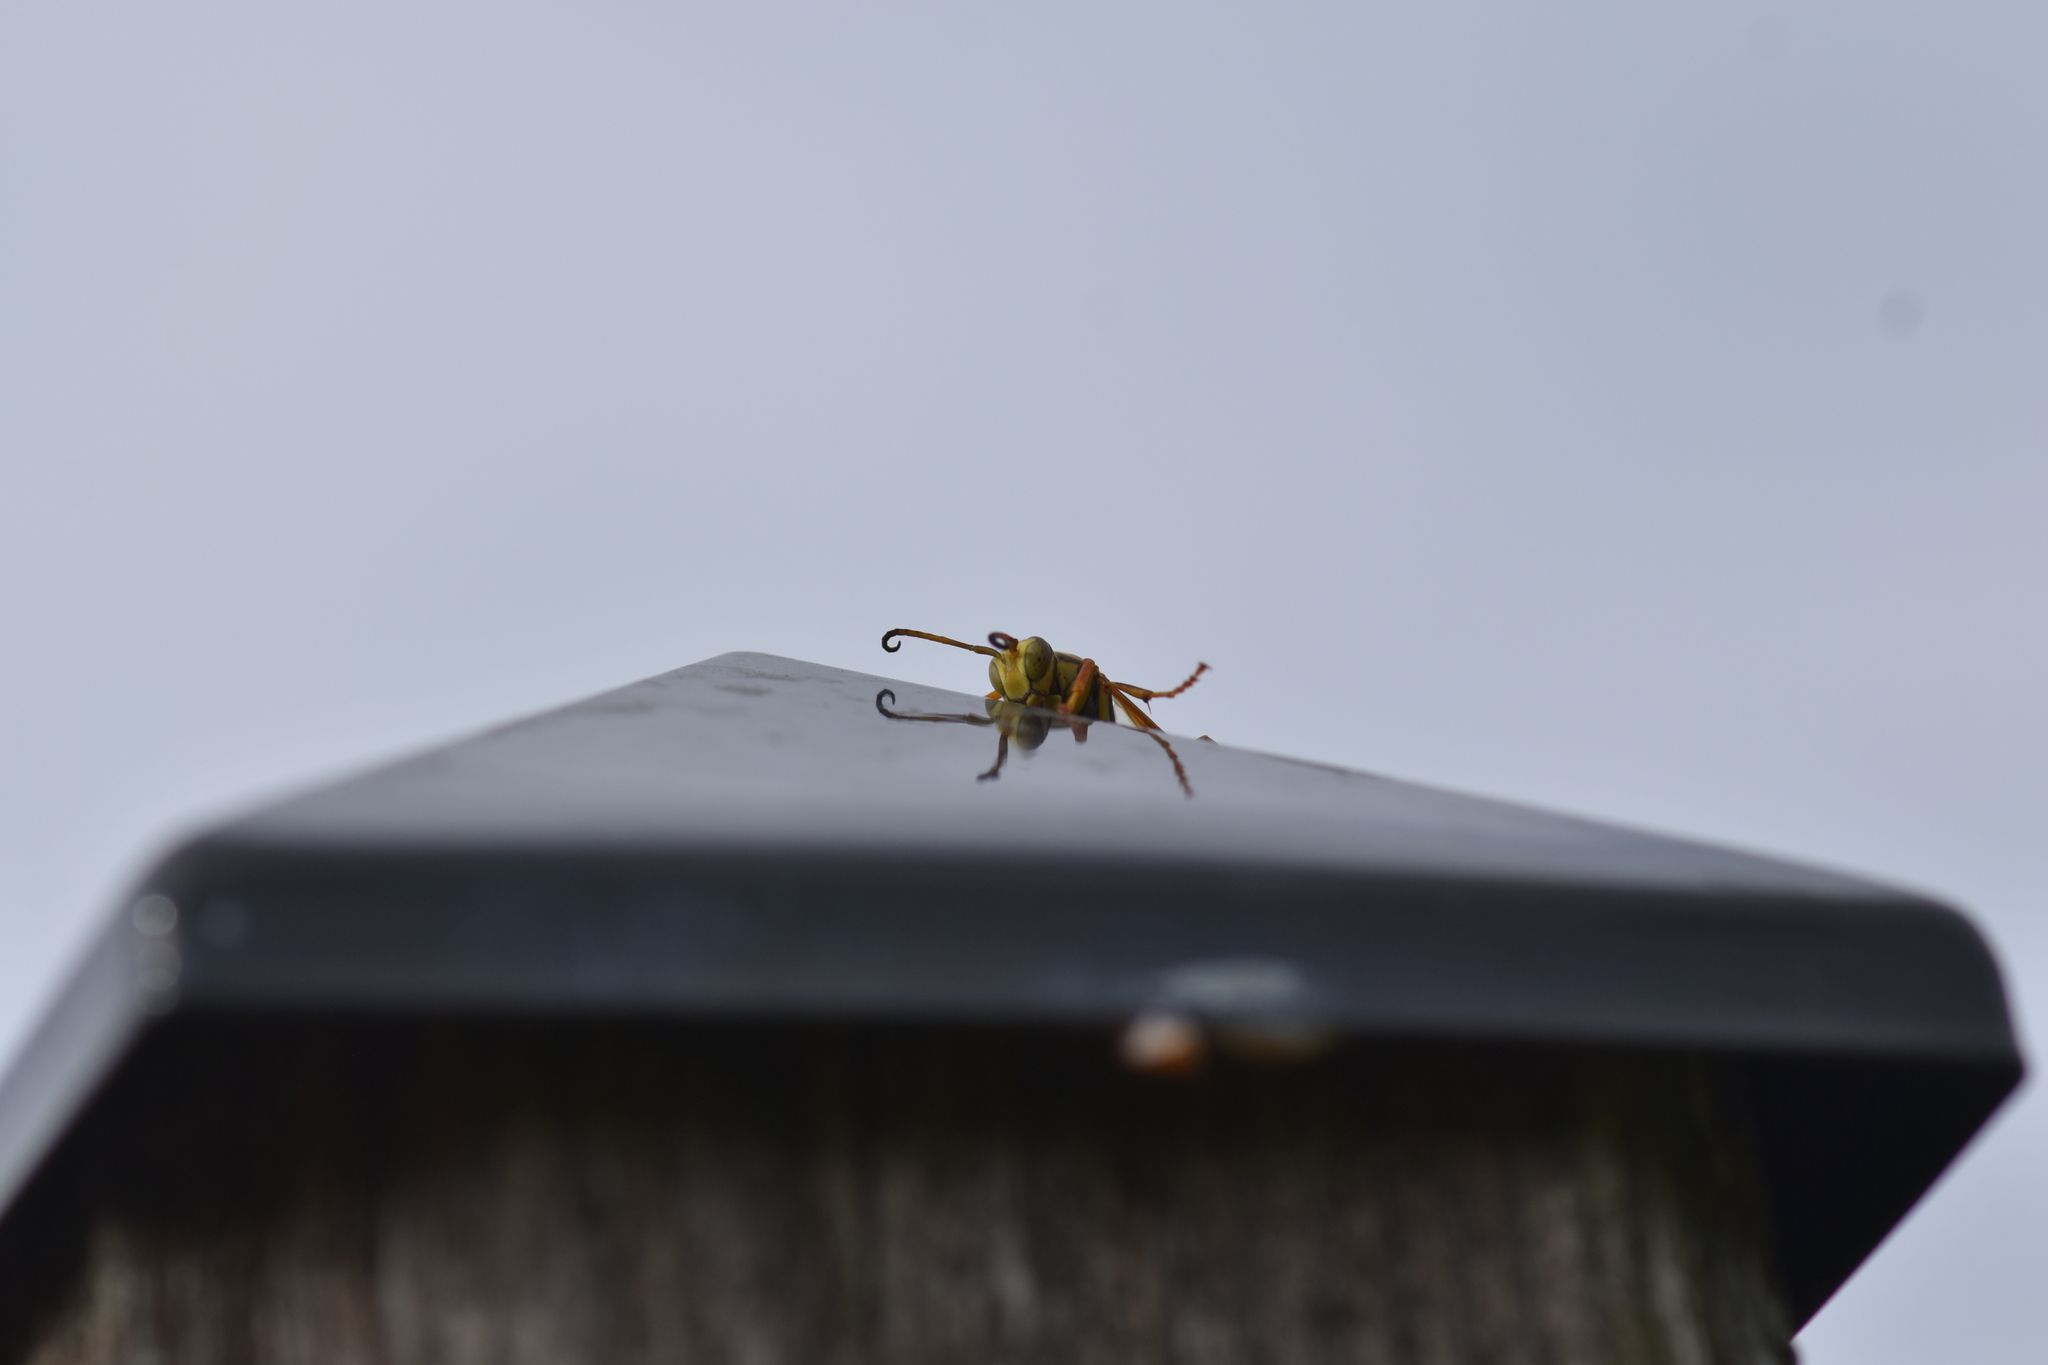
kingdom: Animalia
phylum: Arthropoda
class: Insecta
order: Hymenoptera
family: Eumenidae
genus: Polistes
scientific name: Polistes fuscatus
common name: Dark paper wasp
